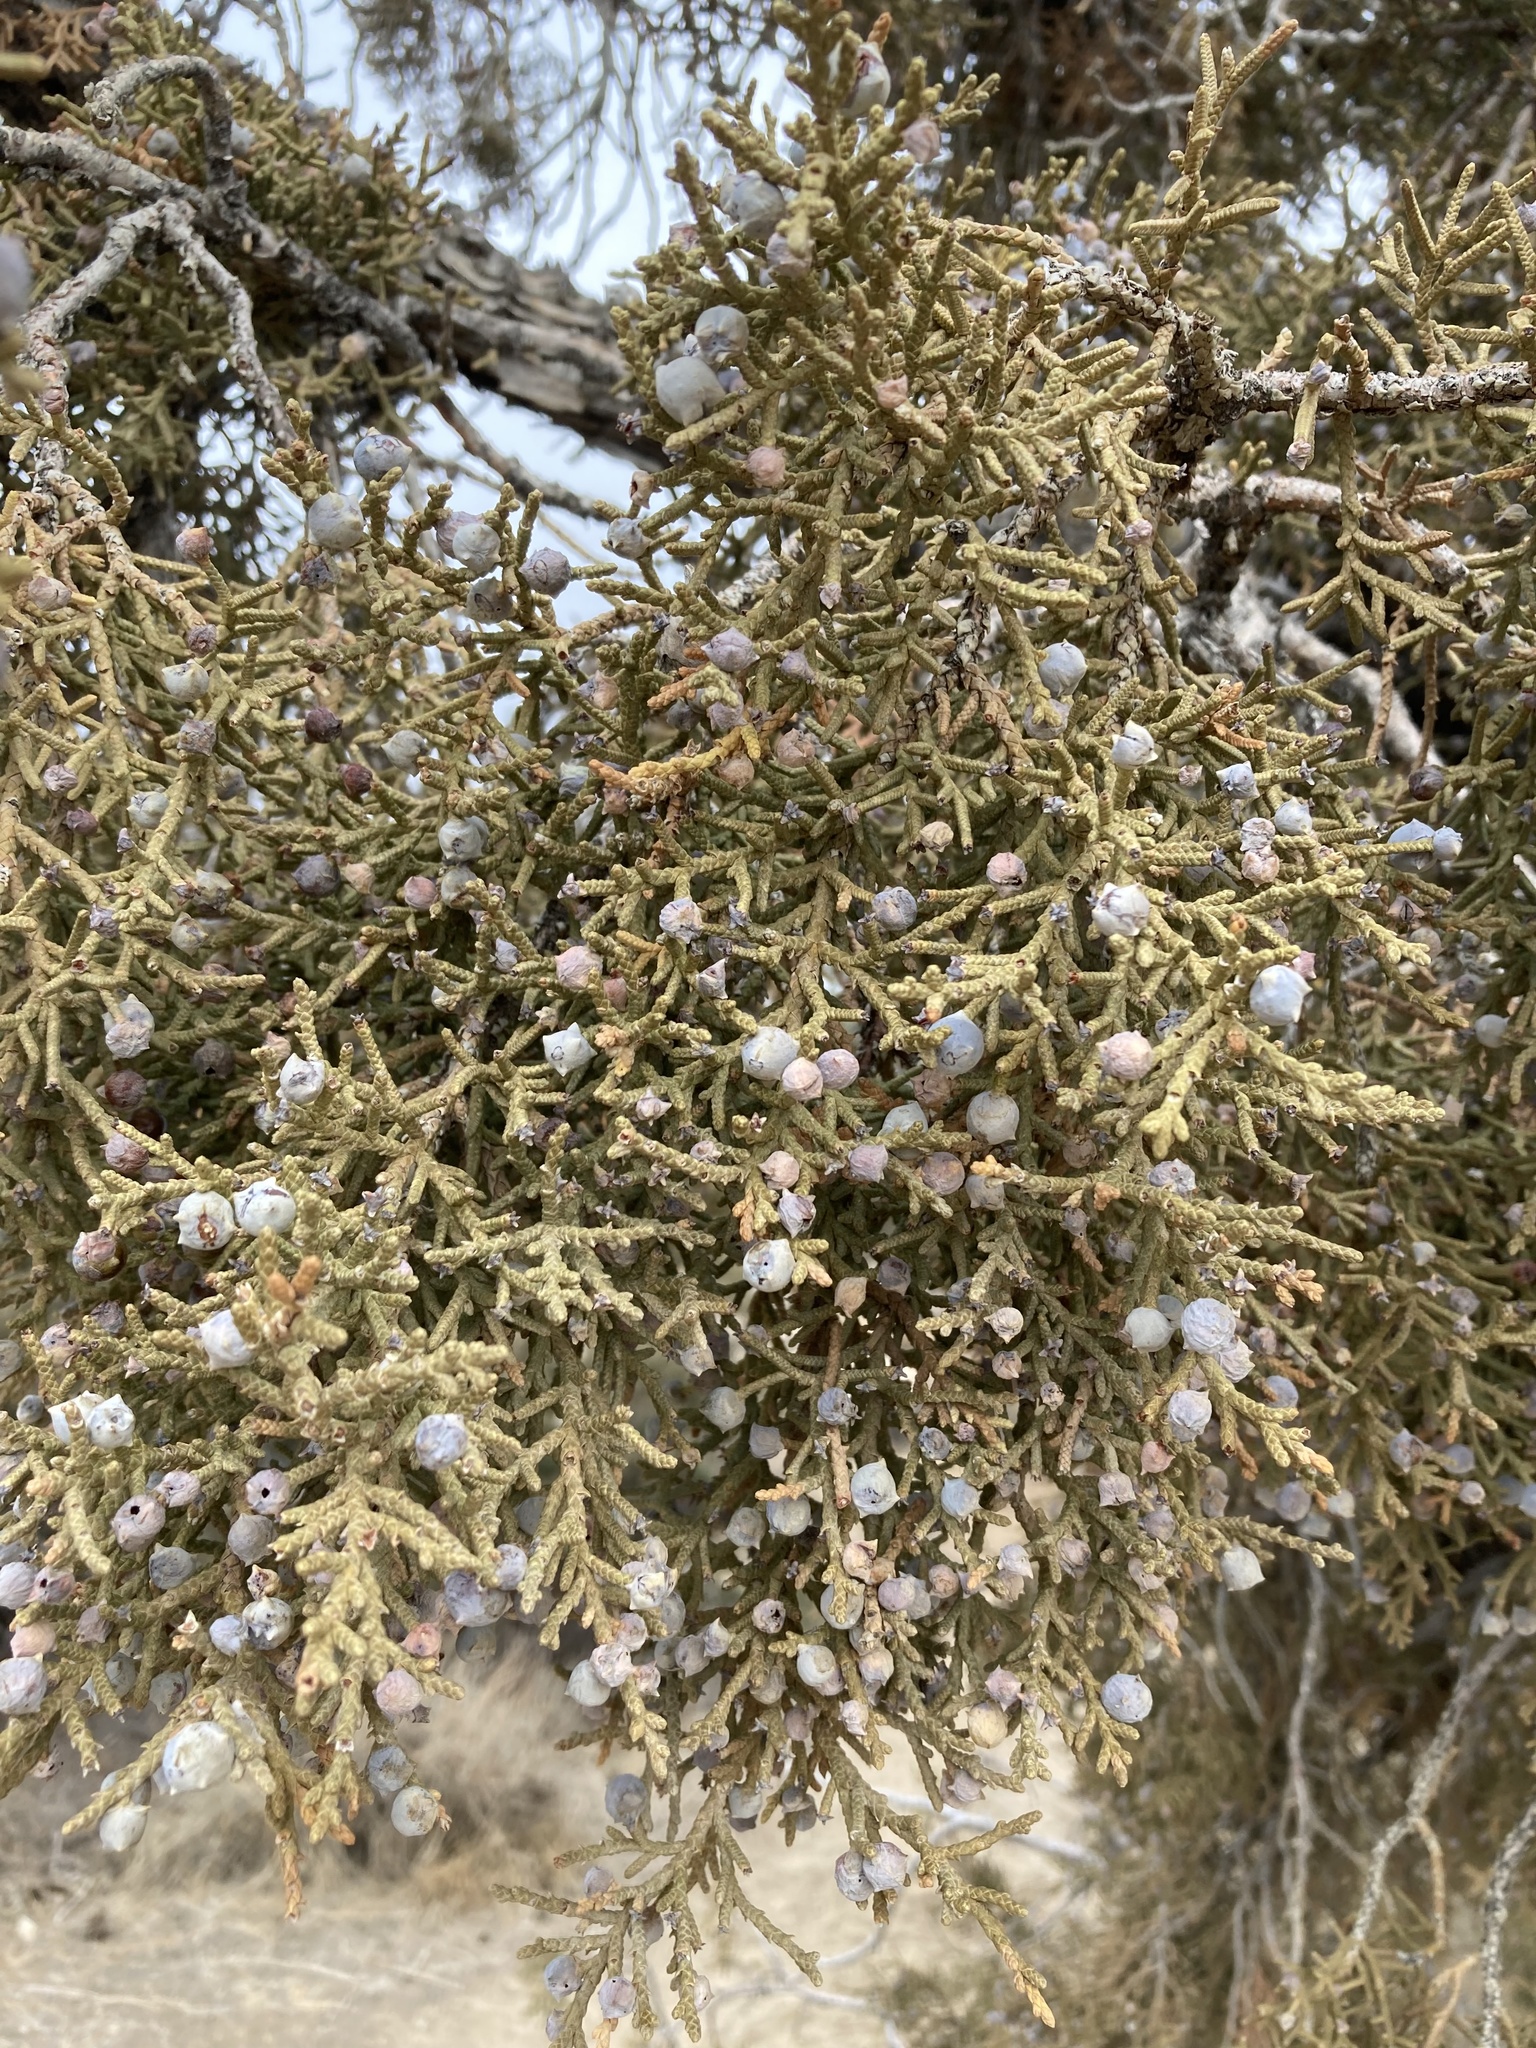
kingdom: Plantae
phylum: Tracheophyta
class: Pinopsida
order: Pinales
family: Cupressaceae
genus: Juniperus
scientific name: Juniperus osteosperma
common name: Utah juniper
